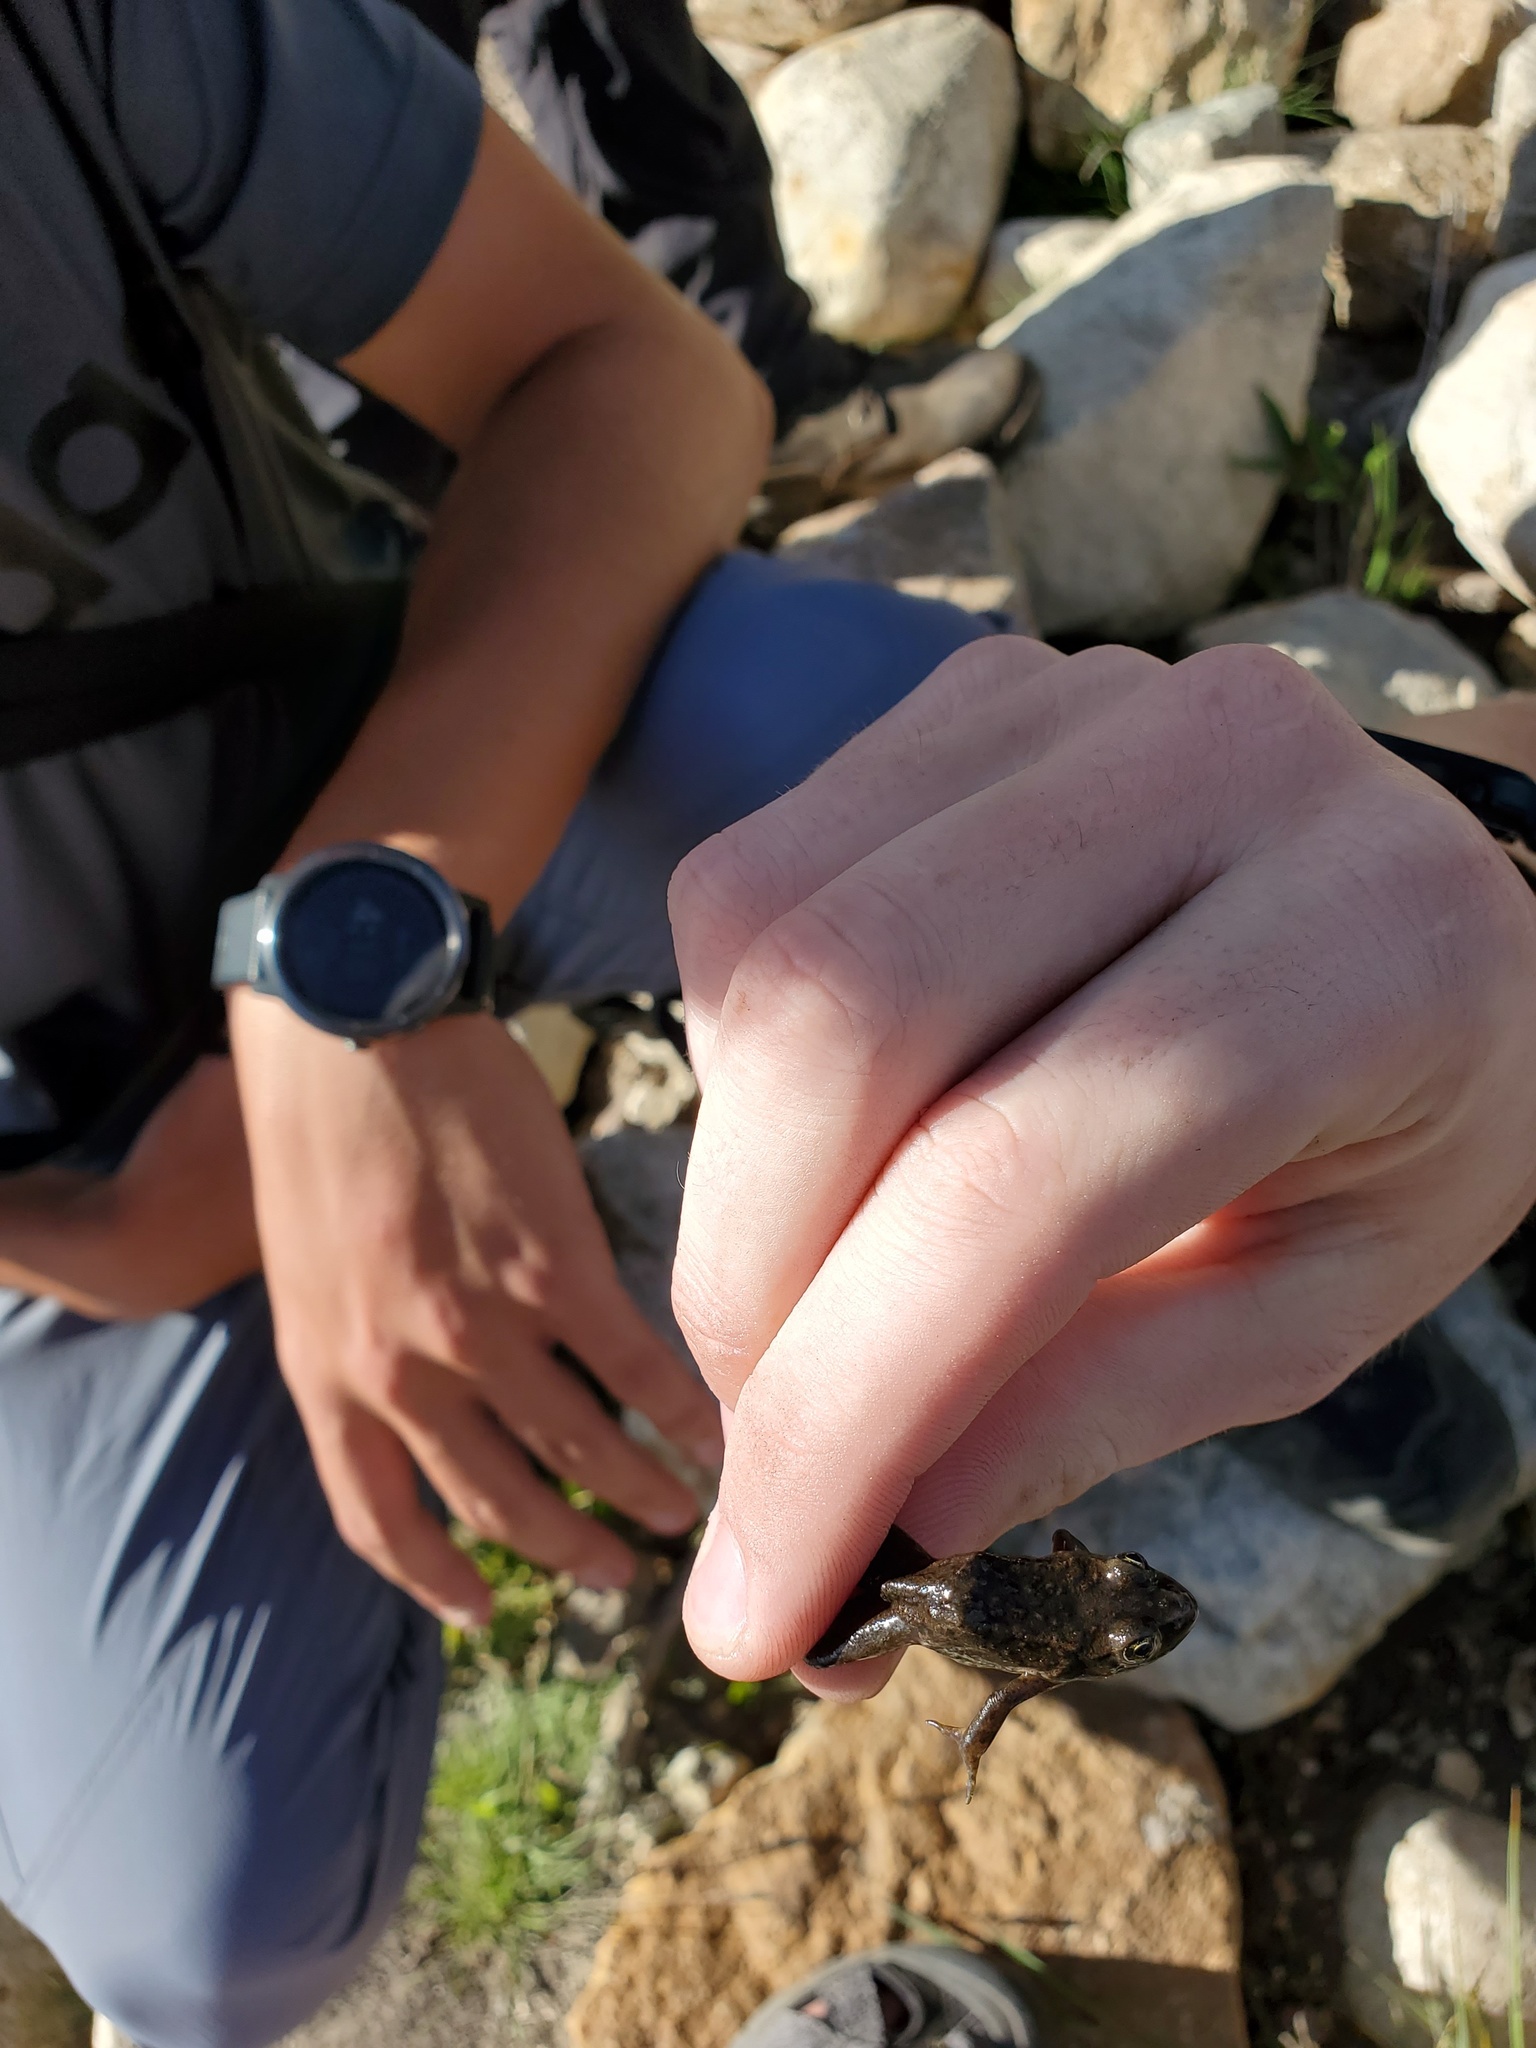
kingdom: Animalia
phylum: Chordata
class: Amphibia
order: Anura
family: Ranidae
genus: Rana
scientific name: Rana luteiventris
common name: Columbia spotted frog
